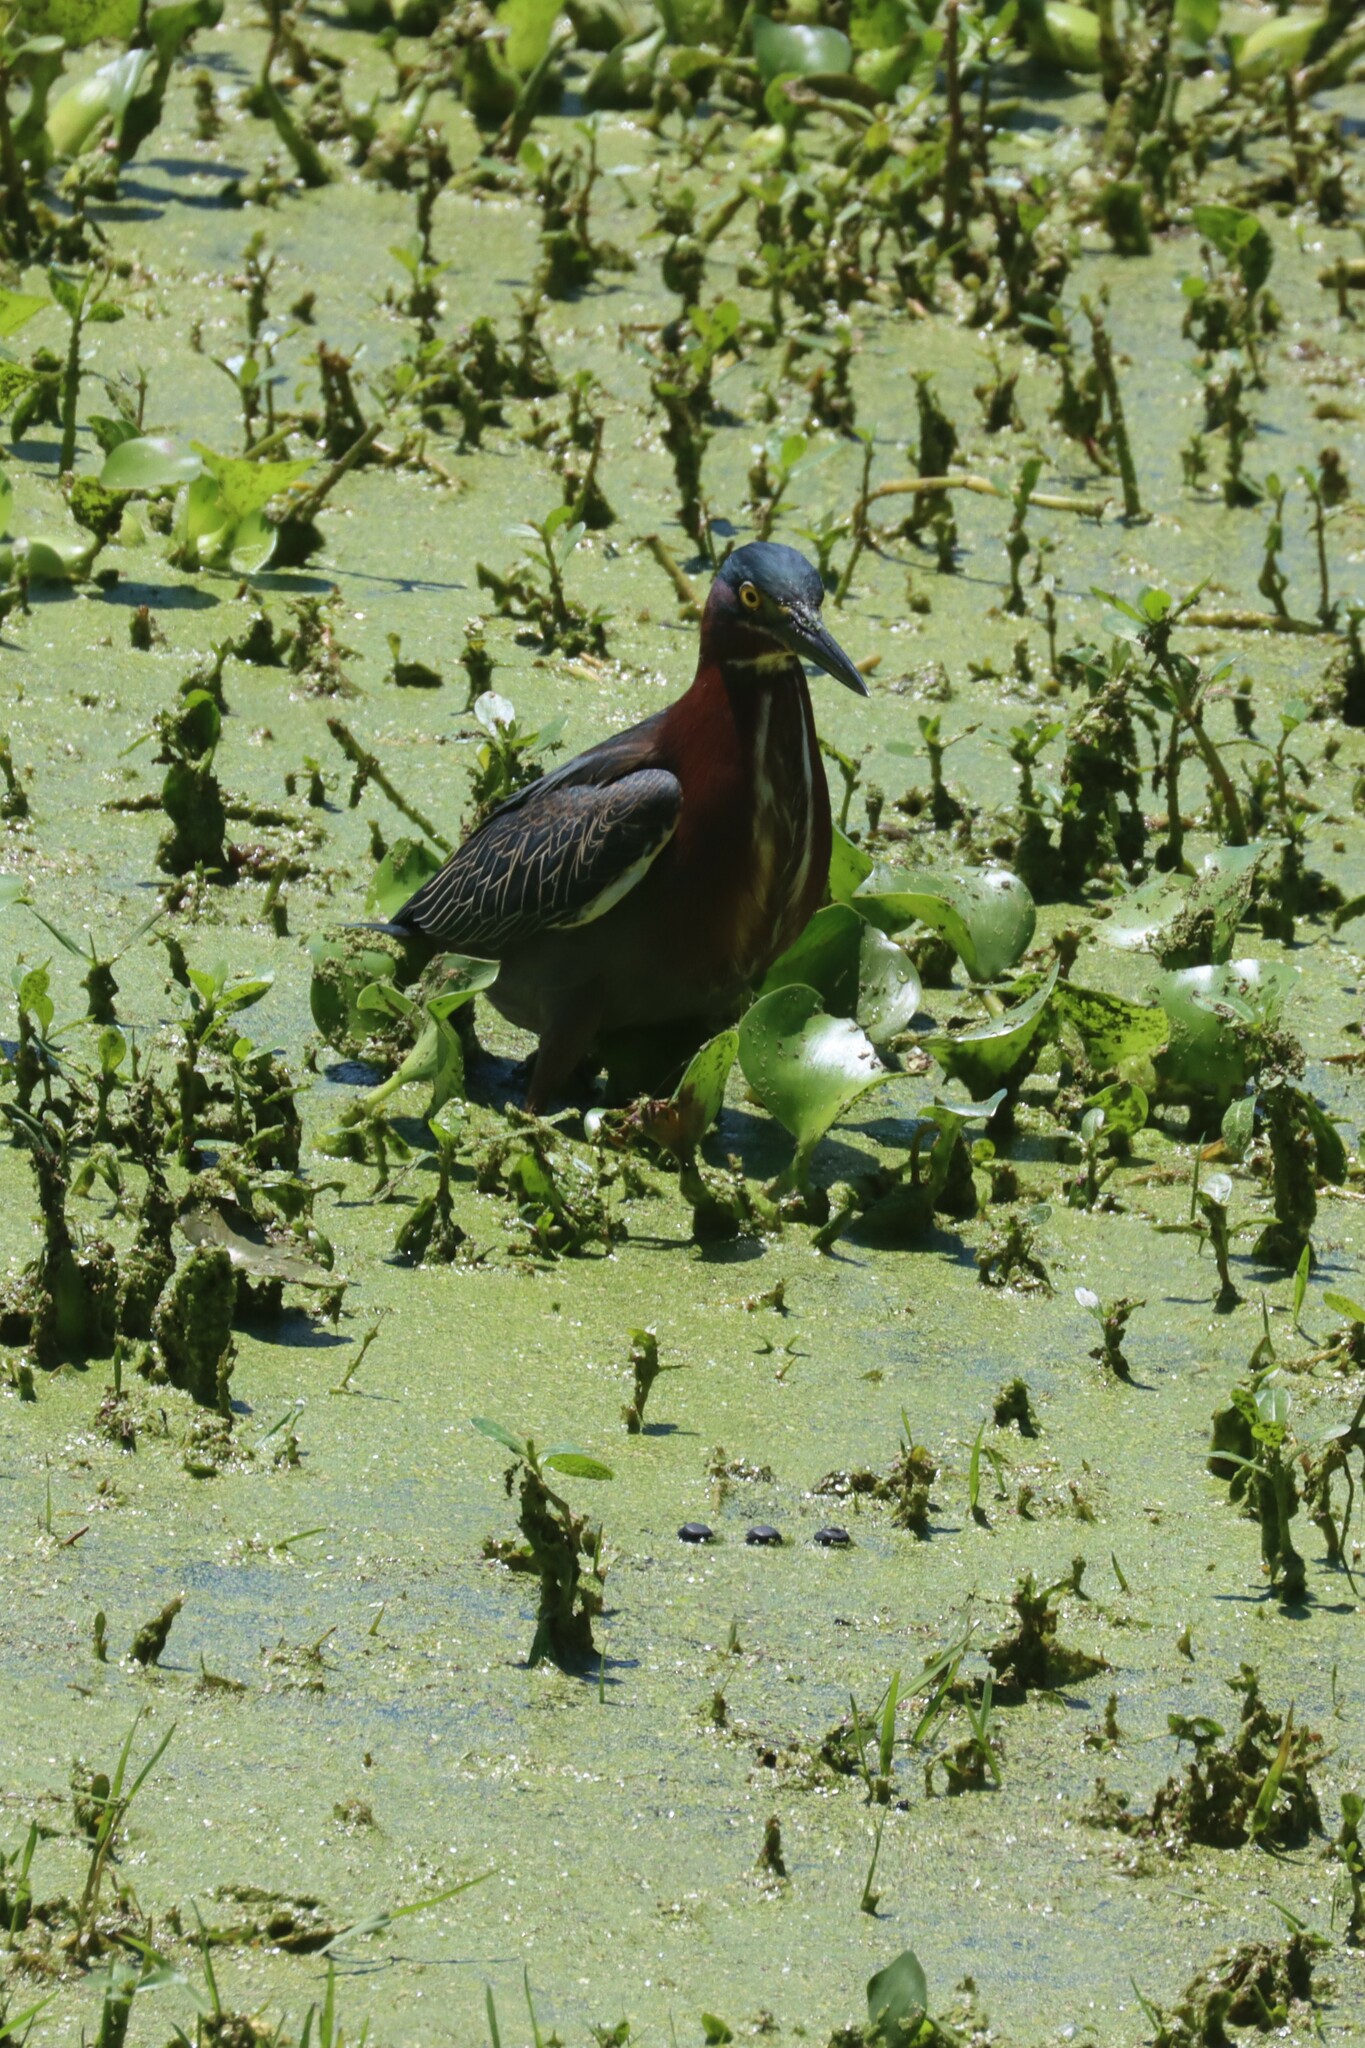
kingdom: Animalia
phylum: Chordata
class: Aves
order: Pelecaniformes
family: Ardeidae
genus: Butorides
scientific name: Butorides virescens
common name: Green heron
